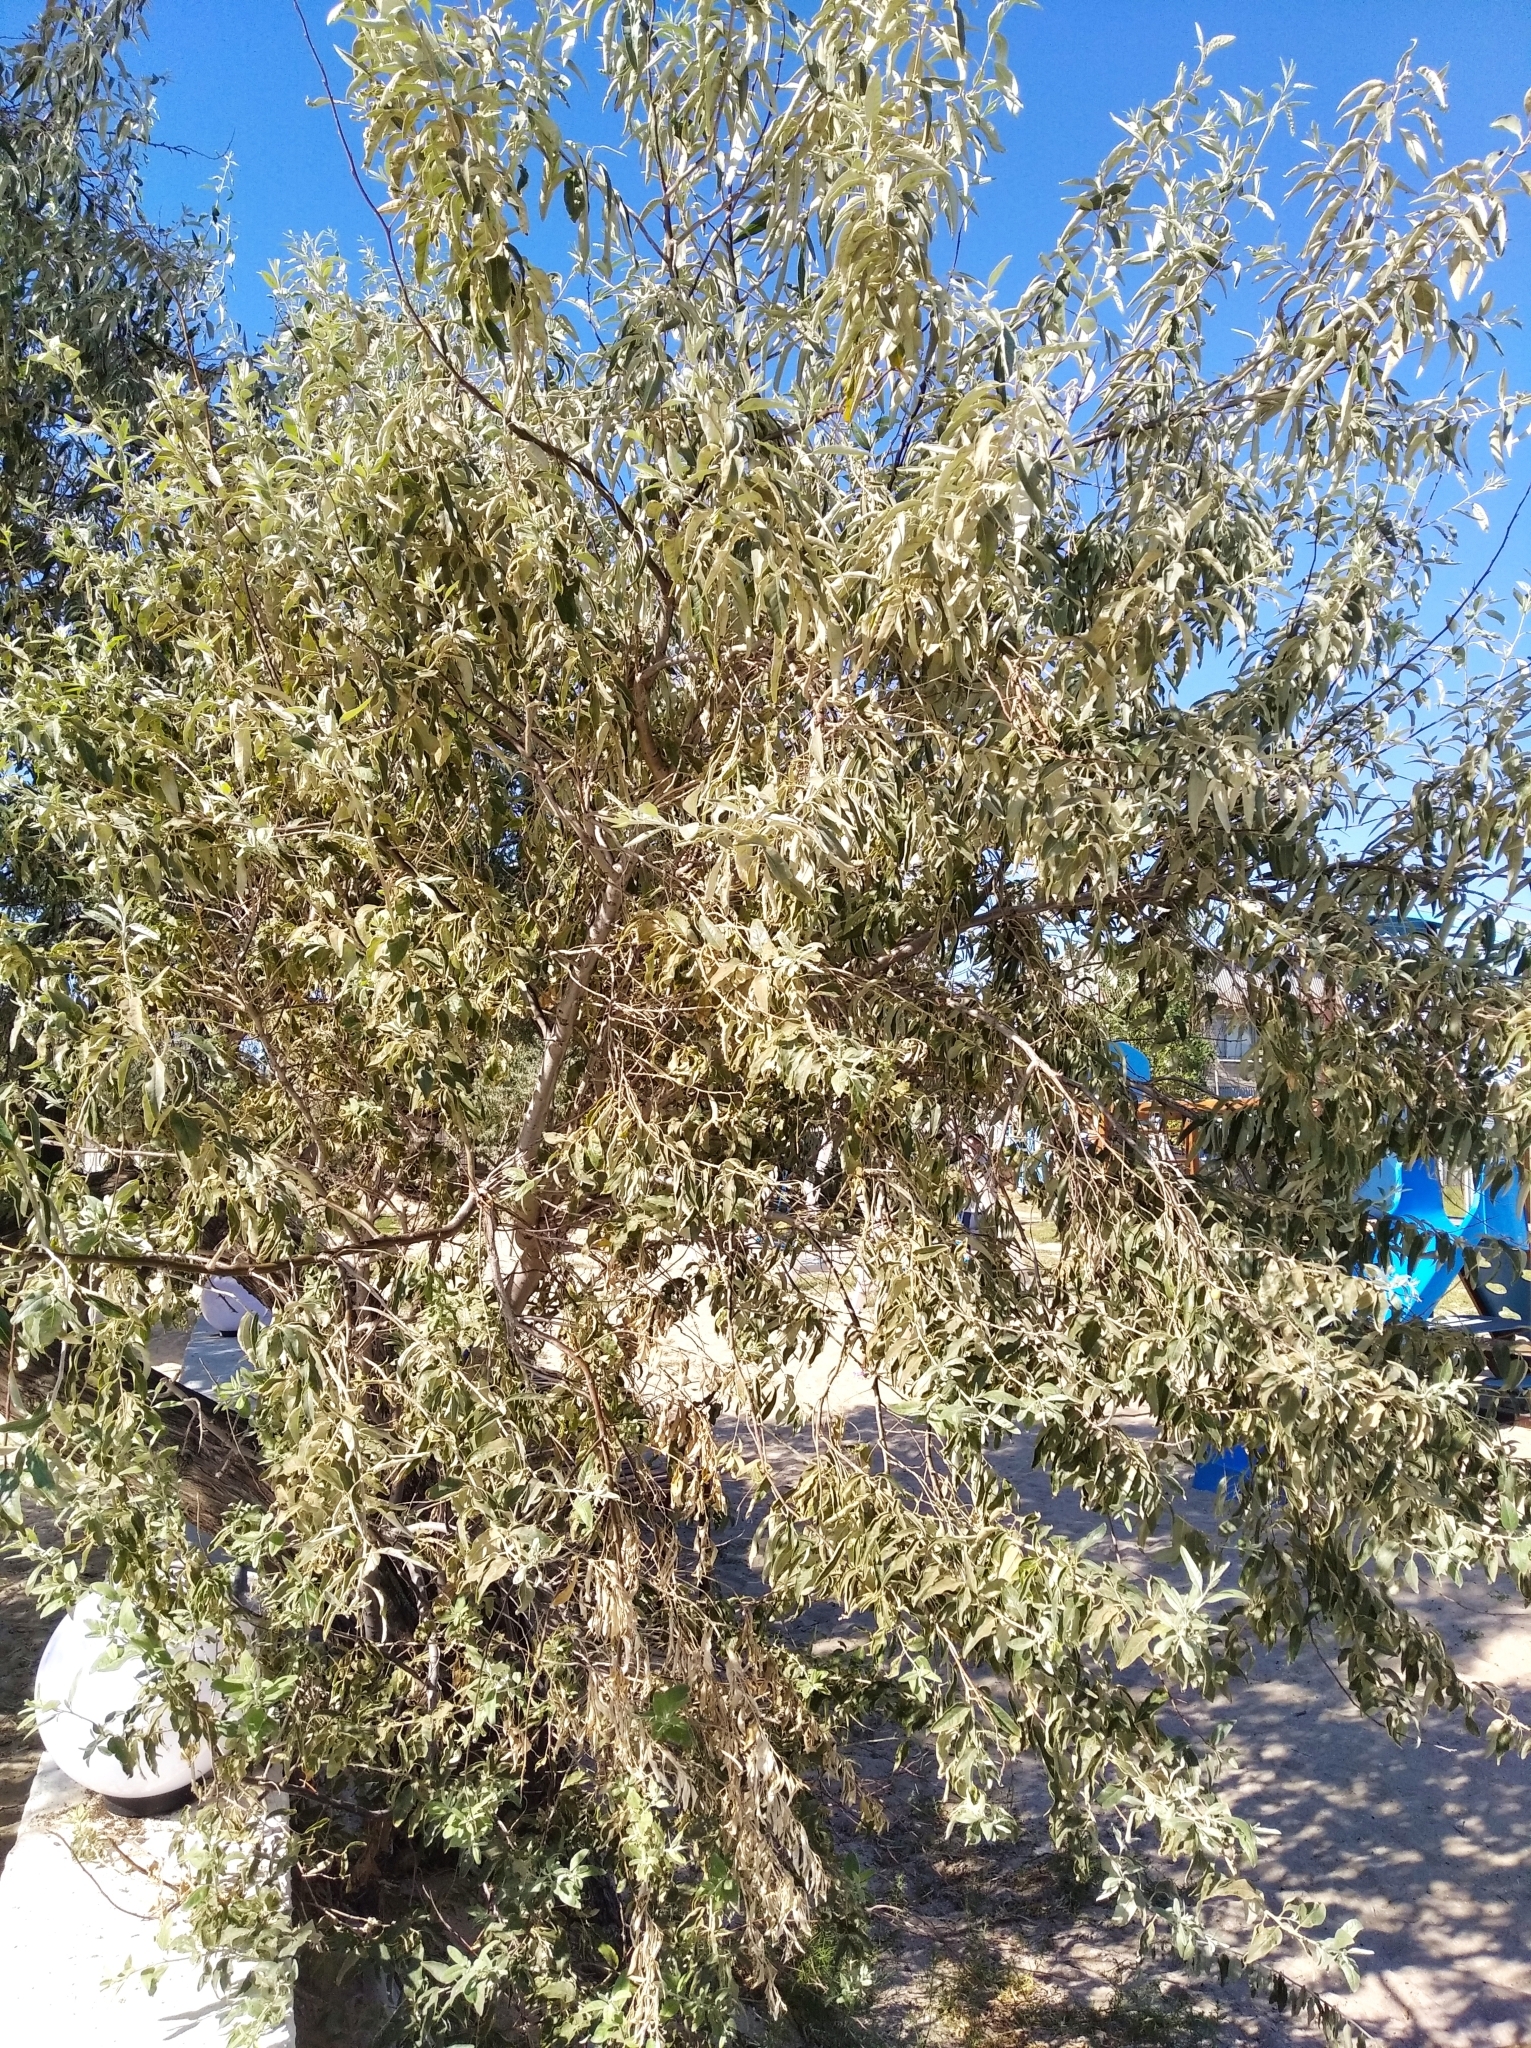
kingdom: Plantae
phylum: Tracheophyta
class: Magnoliopsida
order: Rosales
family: Elaeagnaceae
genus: Elaeagnus
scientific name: Elaeagnus angustifolia
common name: Russian olive
